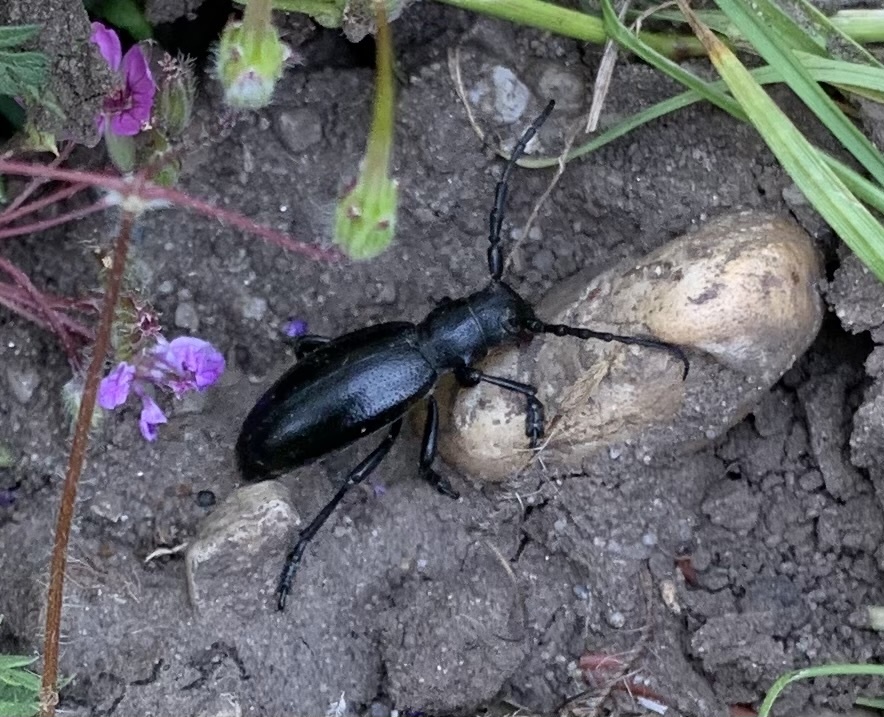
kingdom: Animalia
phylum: Arthropoda
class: Insecta
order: Coleoptera
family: Cerambycidae
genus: Dorcadion
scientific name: Dorcadion aethiops
